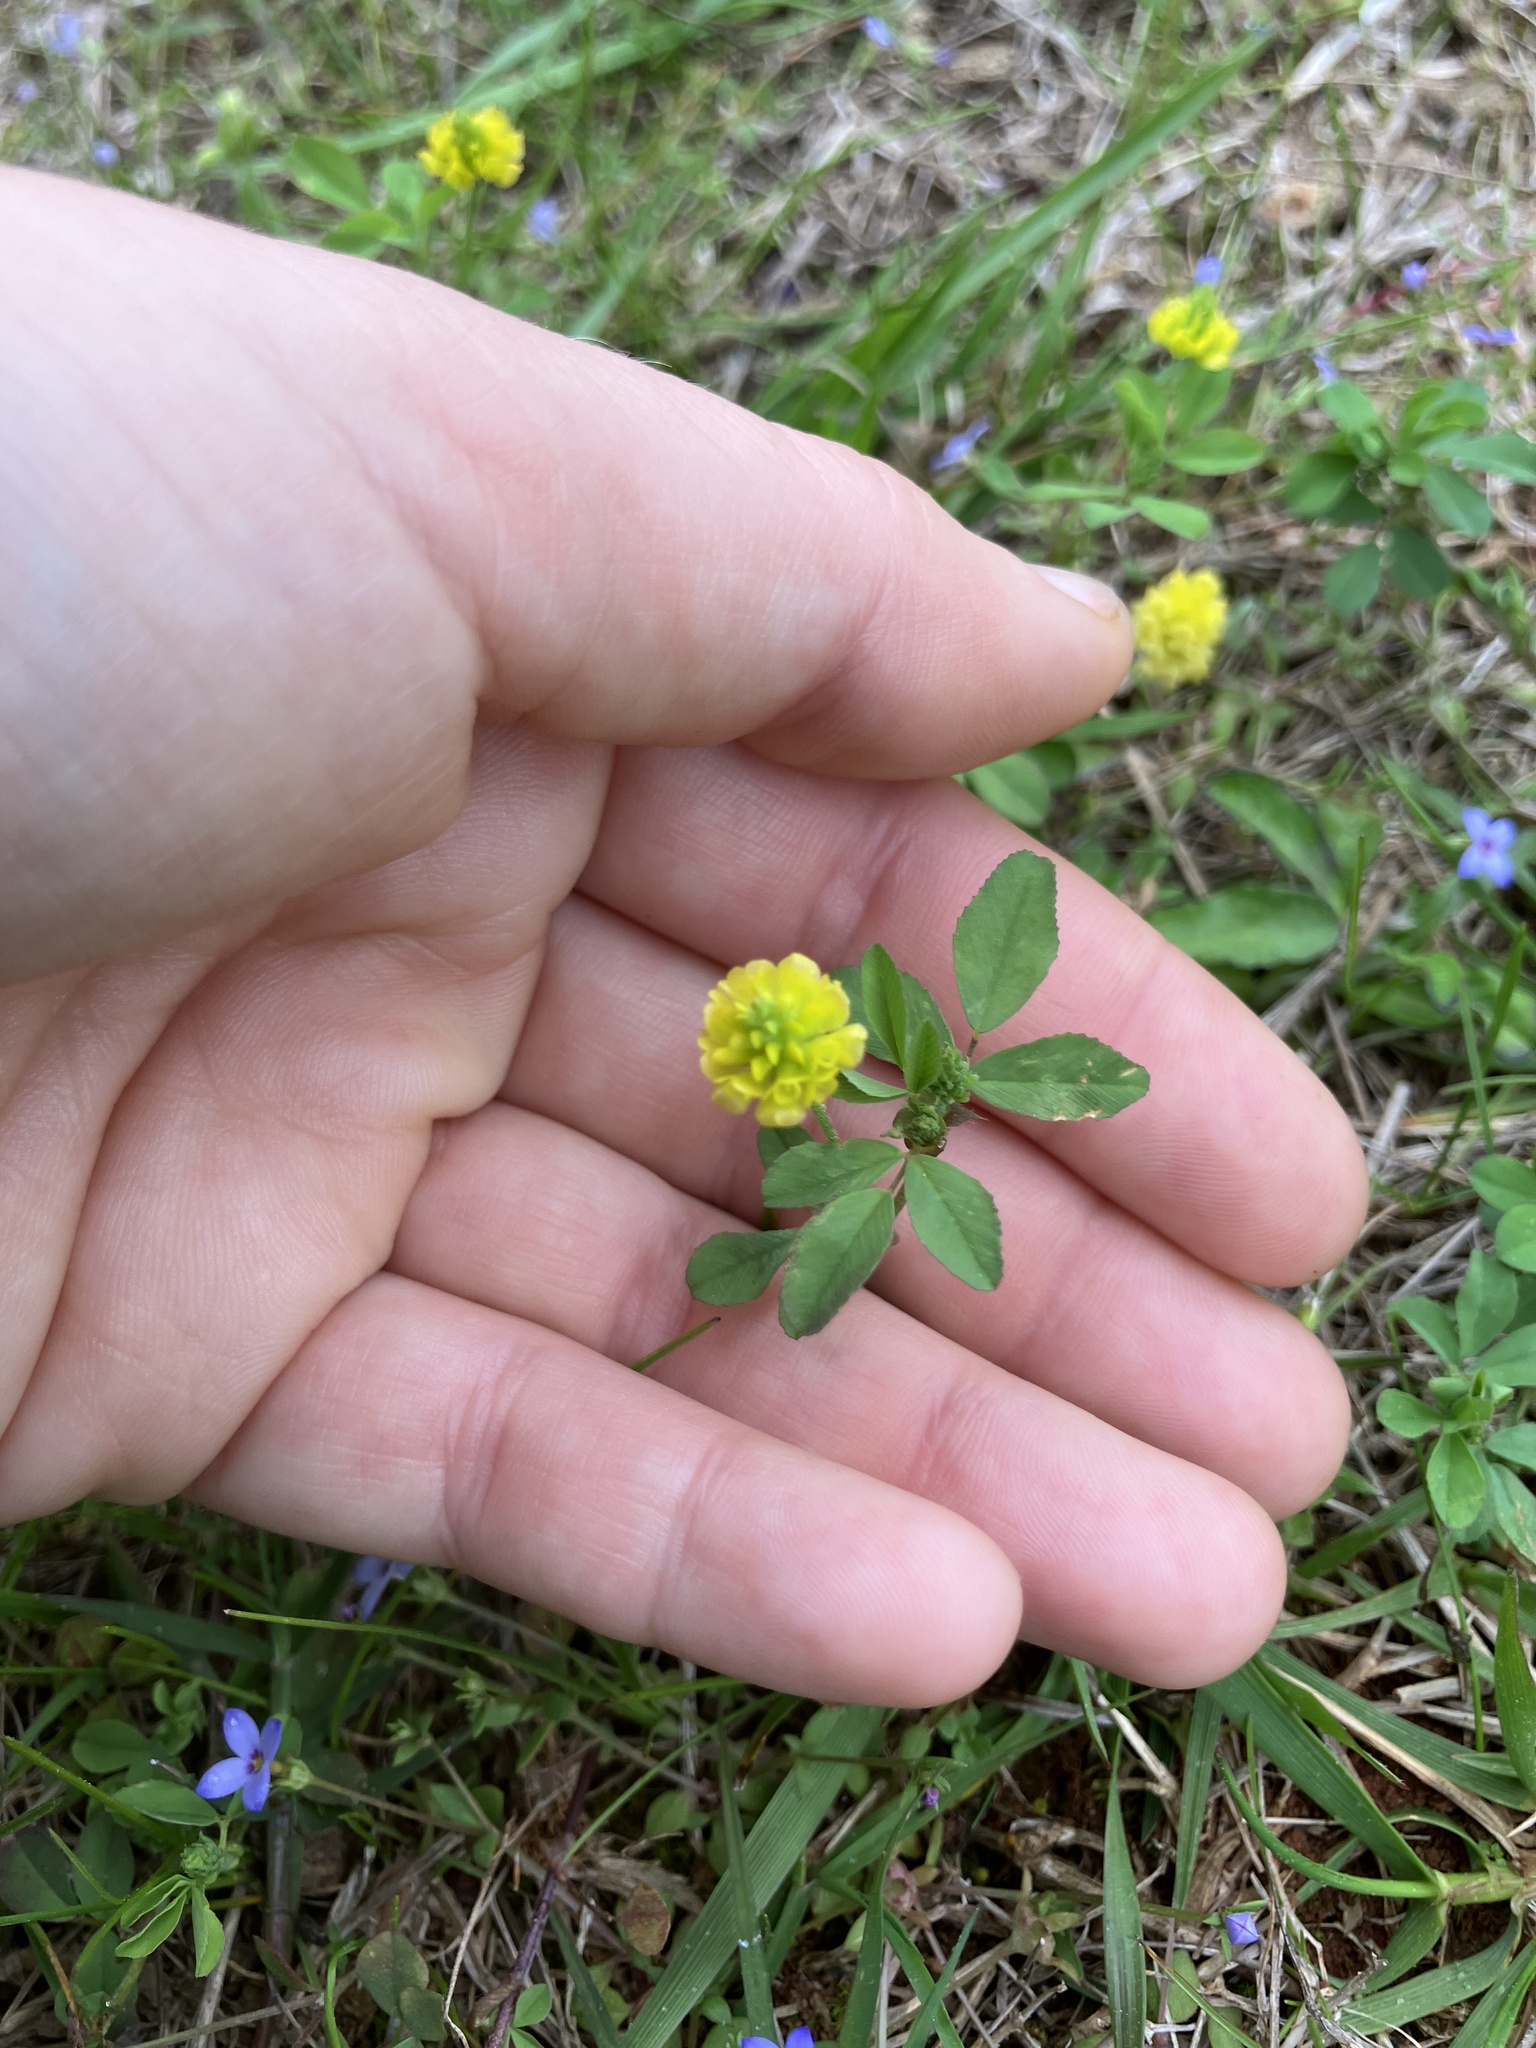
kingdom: Plantae
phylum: Tracheophyta
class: Magnoliopsida
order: Fabales
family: Fabaceae
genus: Trifolium
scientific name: Trifolium campestre
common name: Field clover
